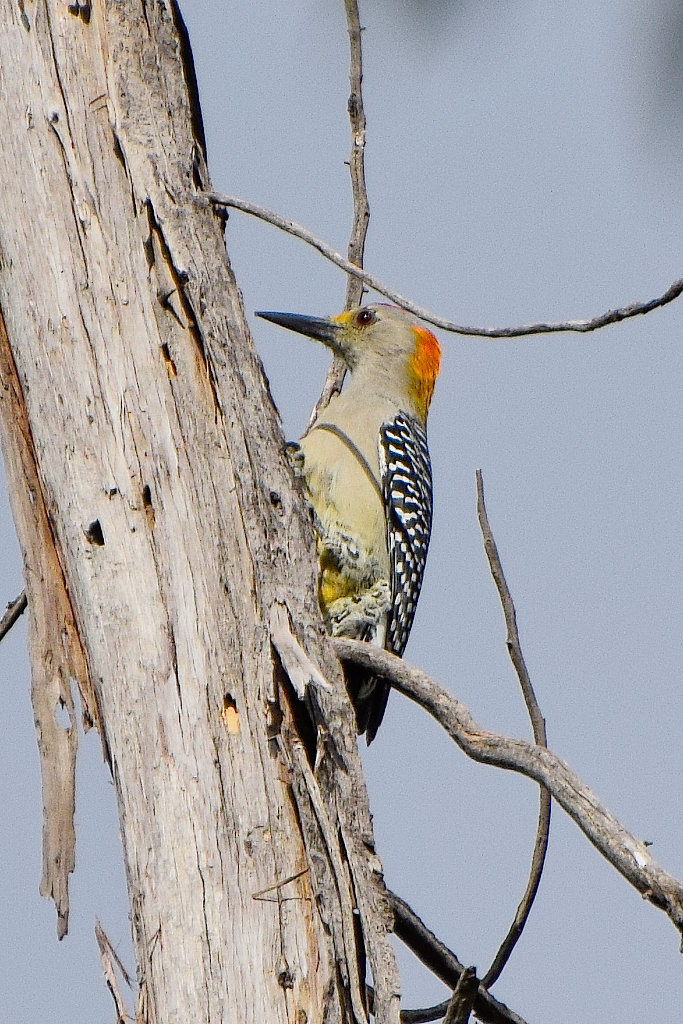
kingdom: Animalia
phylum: Chordata
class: Aves
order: Piciformes
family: Picidae
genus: Melanerpes
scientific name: Melanerpes aurifrons
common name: Golden-fronted woodpecker
